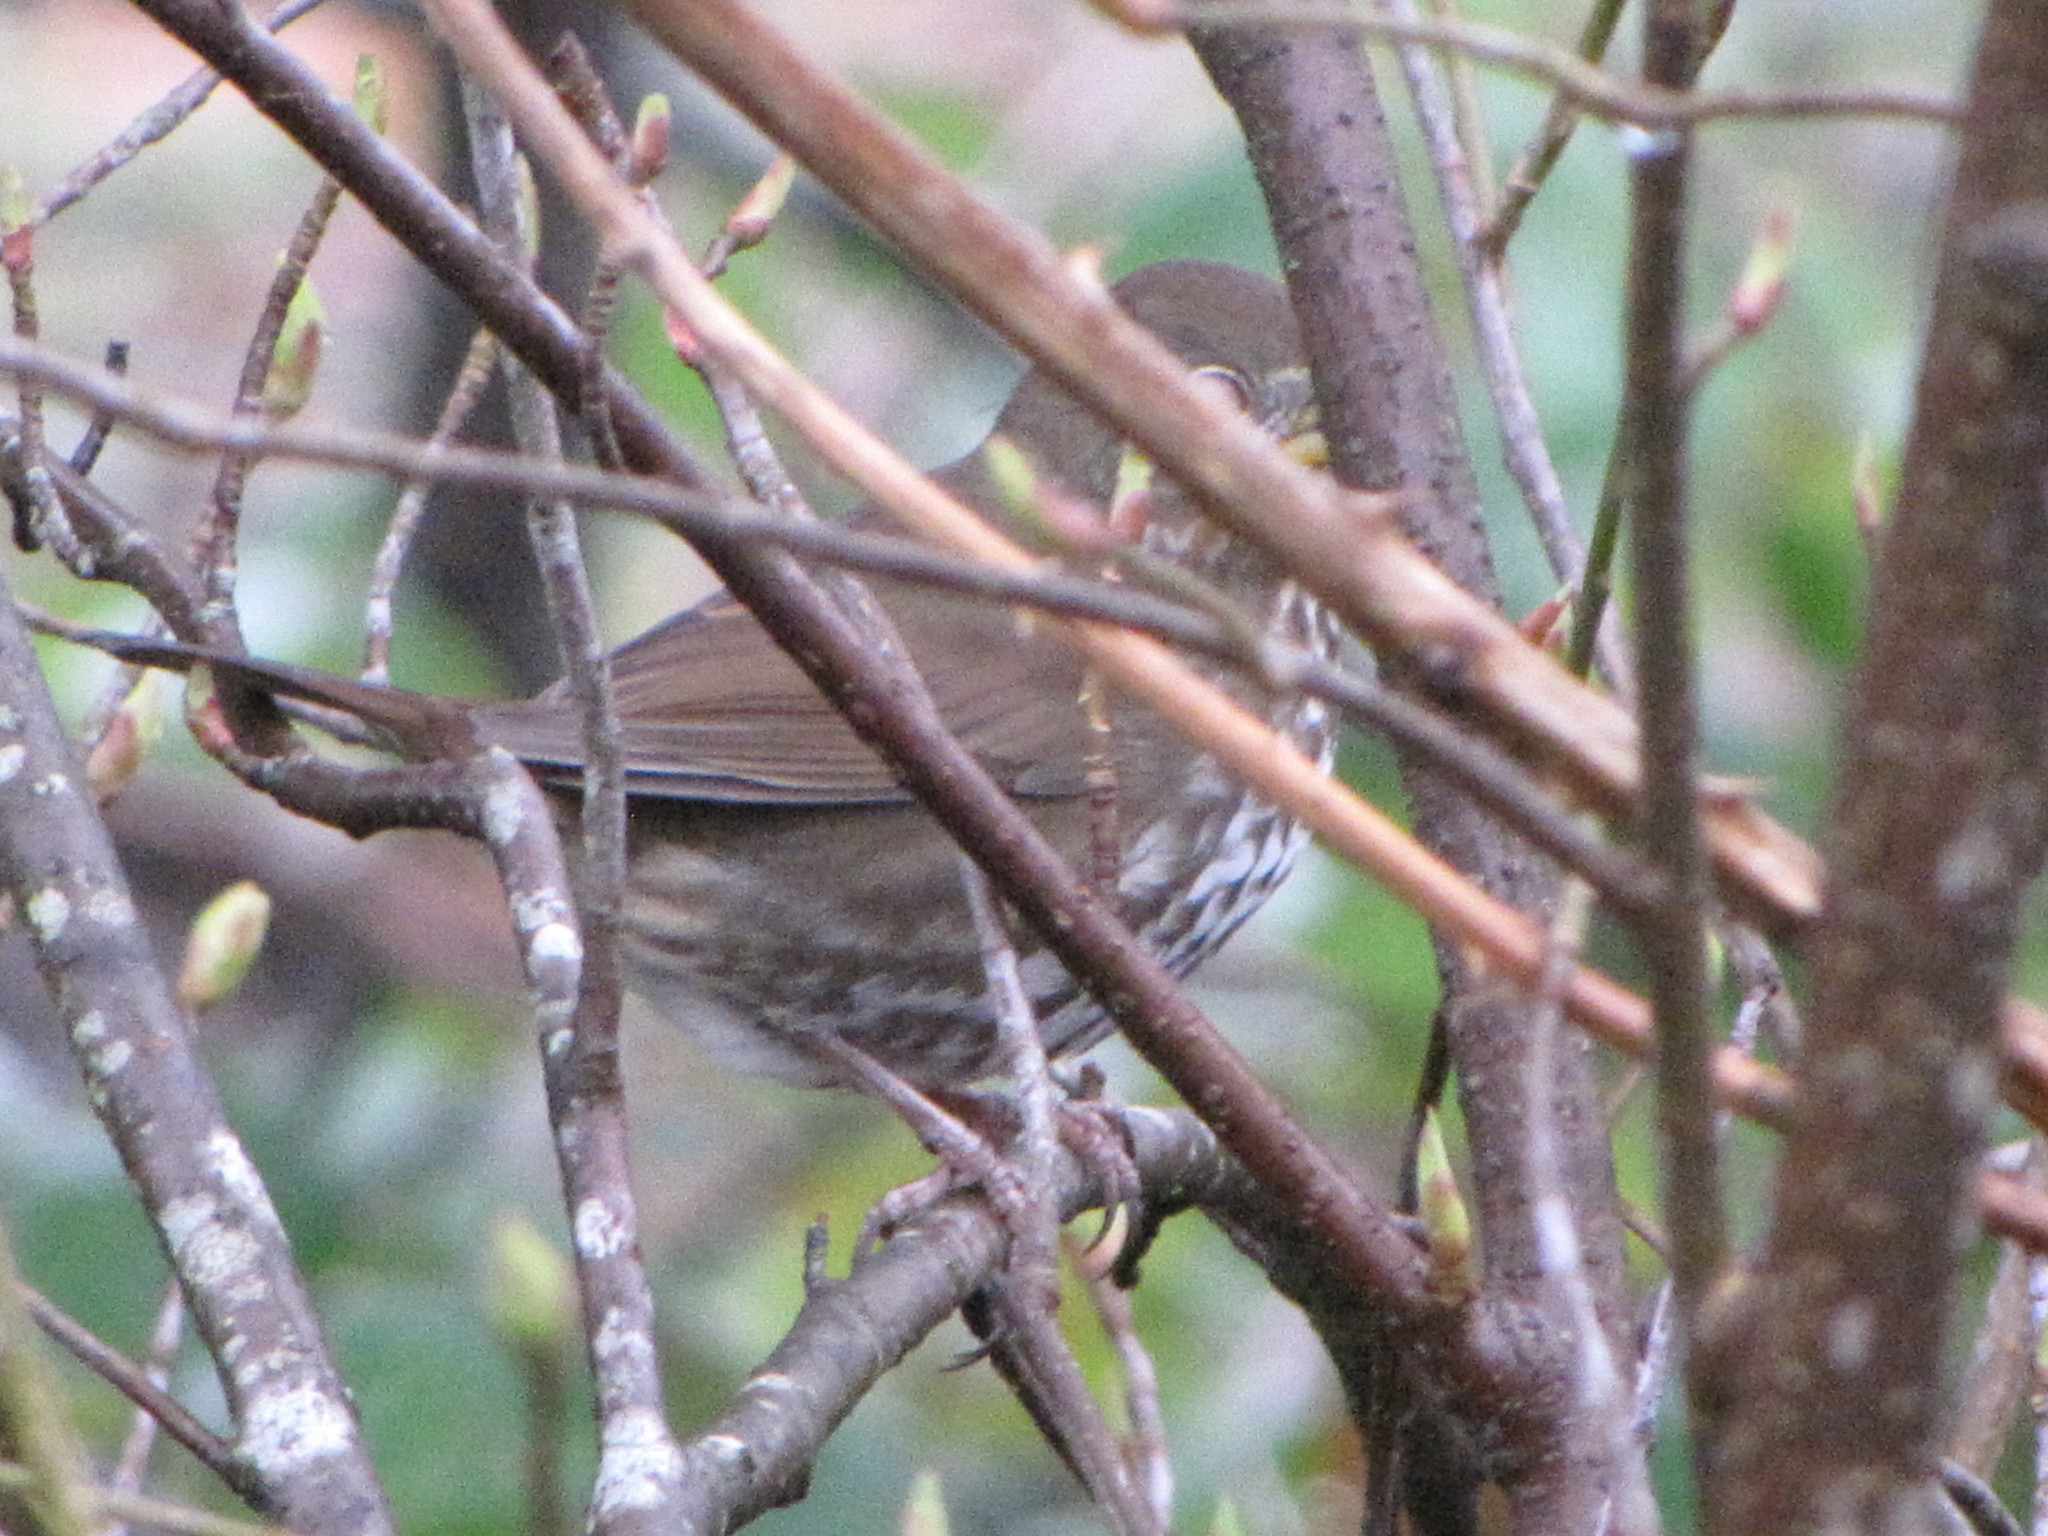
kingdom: Animalia
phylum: Chordata
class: Aves
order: Passeriformes
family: Passerellidae
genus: Passerella
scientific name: Passerella iliaca
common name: Fox sparrow
